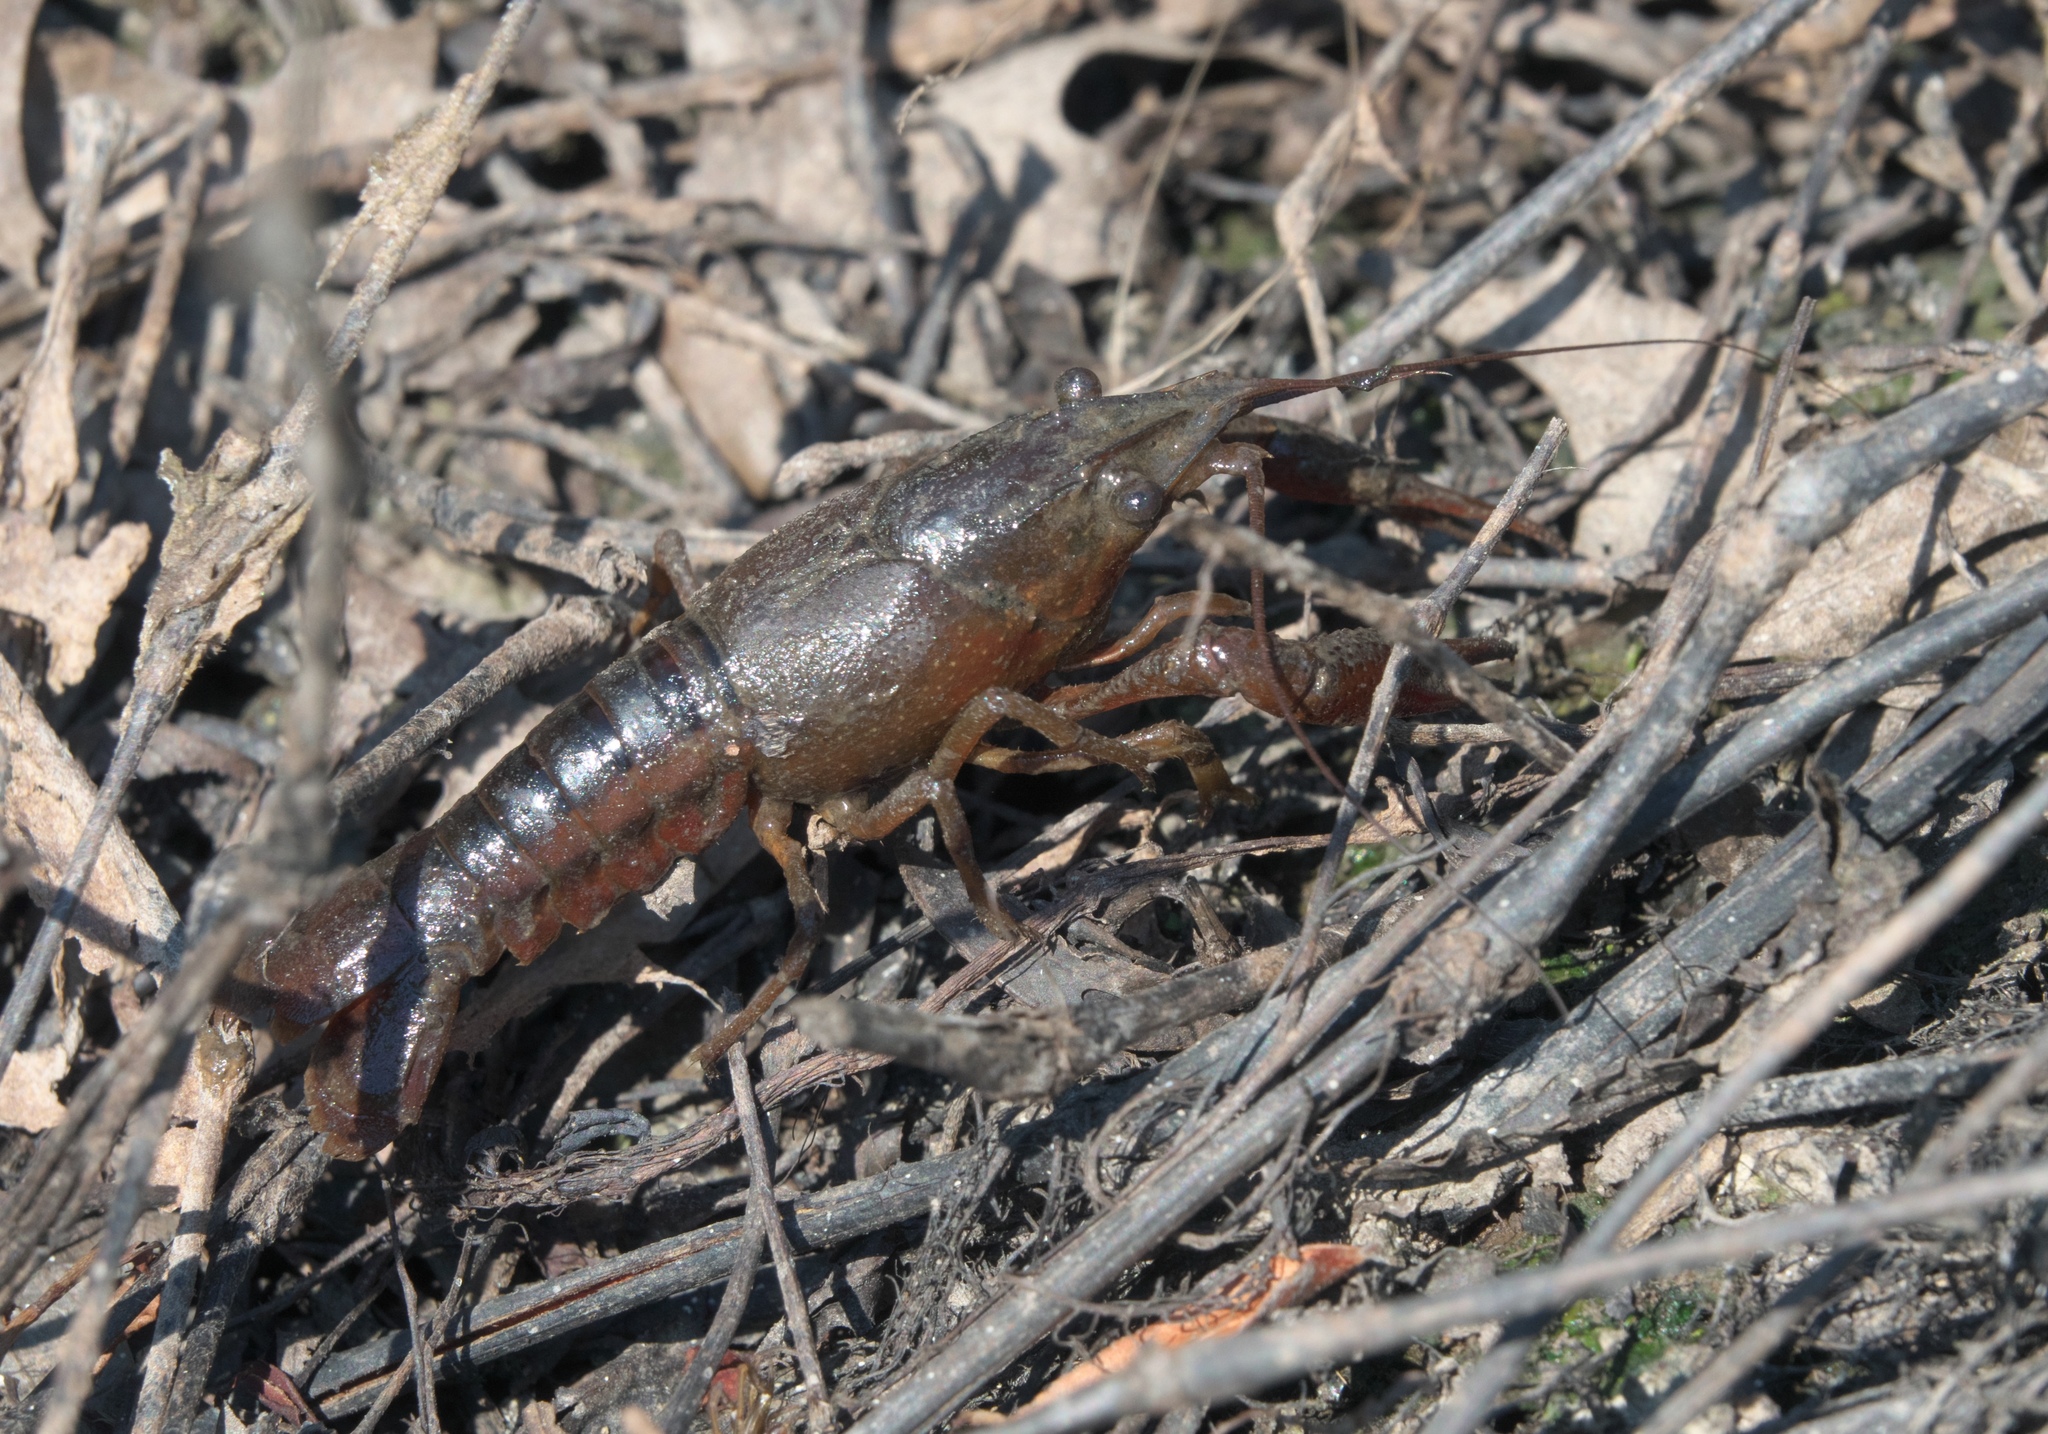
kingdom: Animalia
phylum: Arthropoda
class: Malacostraca
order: Decapoda
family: Cambaridae
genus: Procambarus
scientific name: Procambarus acutus
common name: White river crayfish
